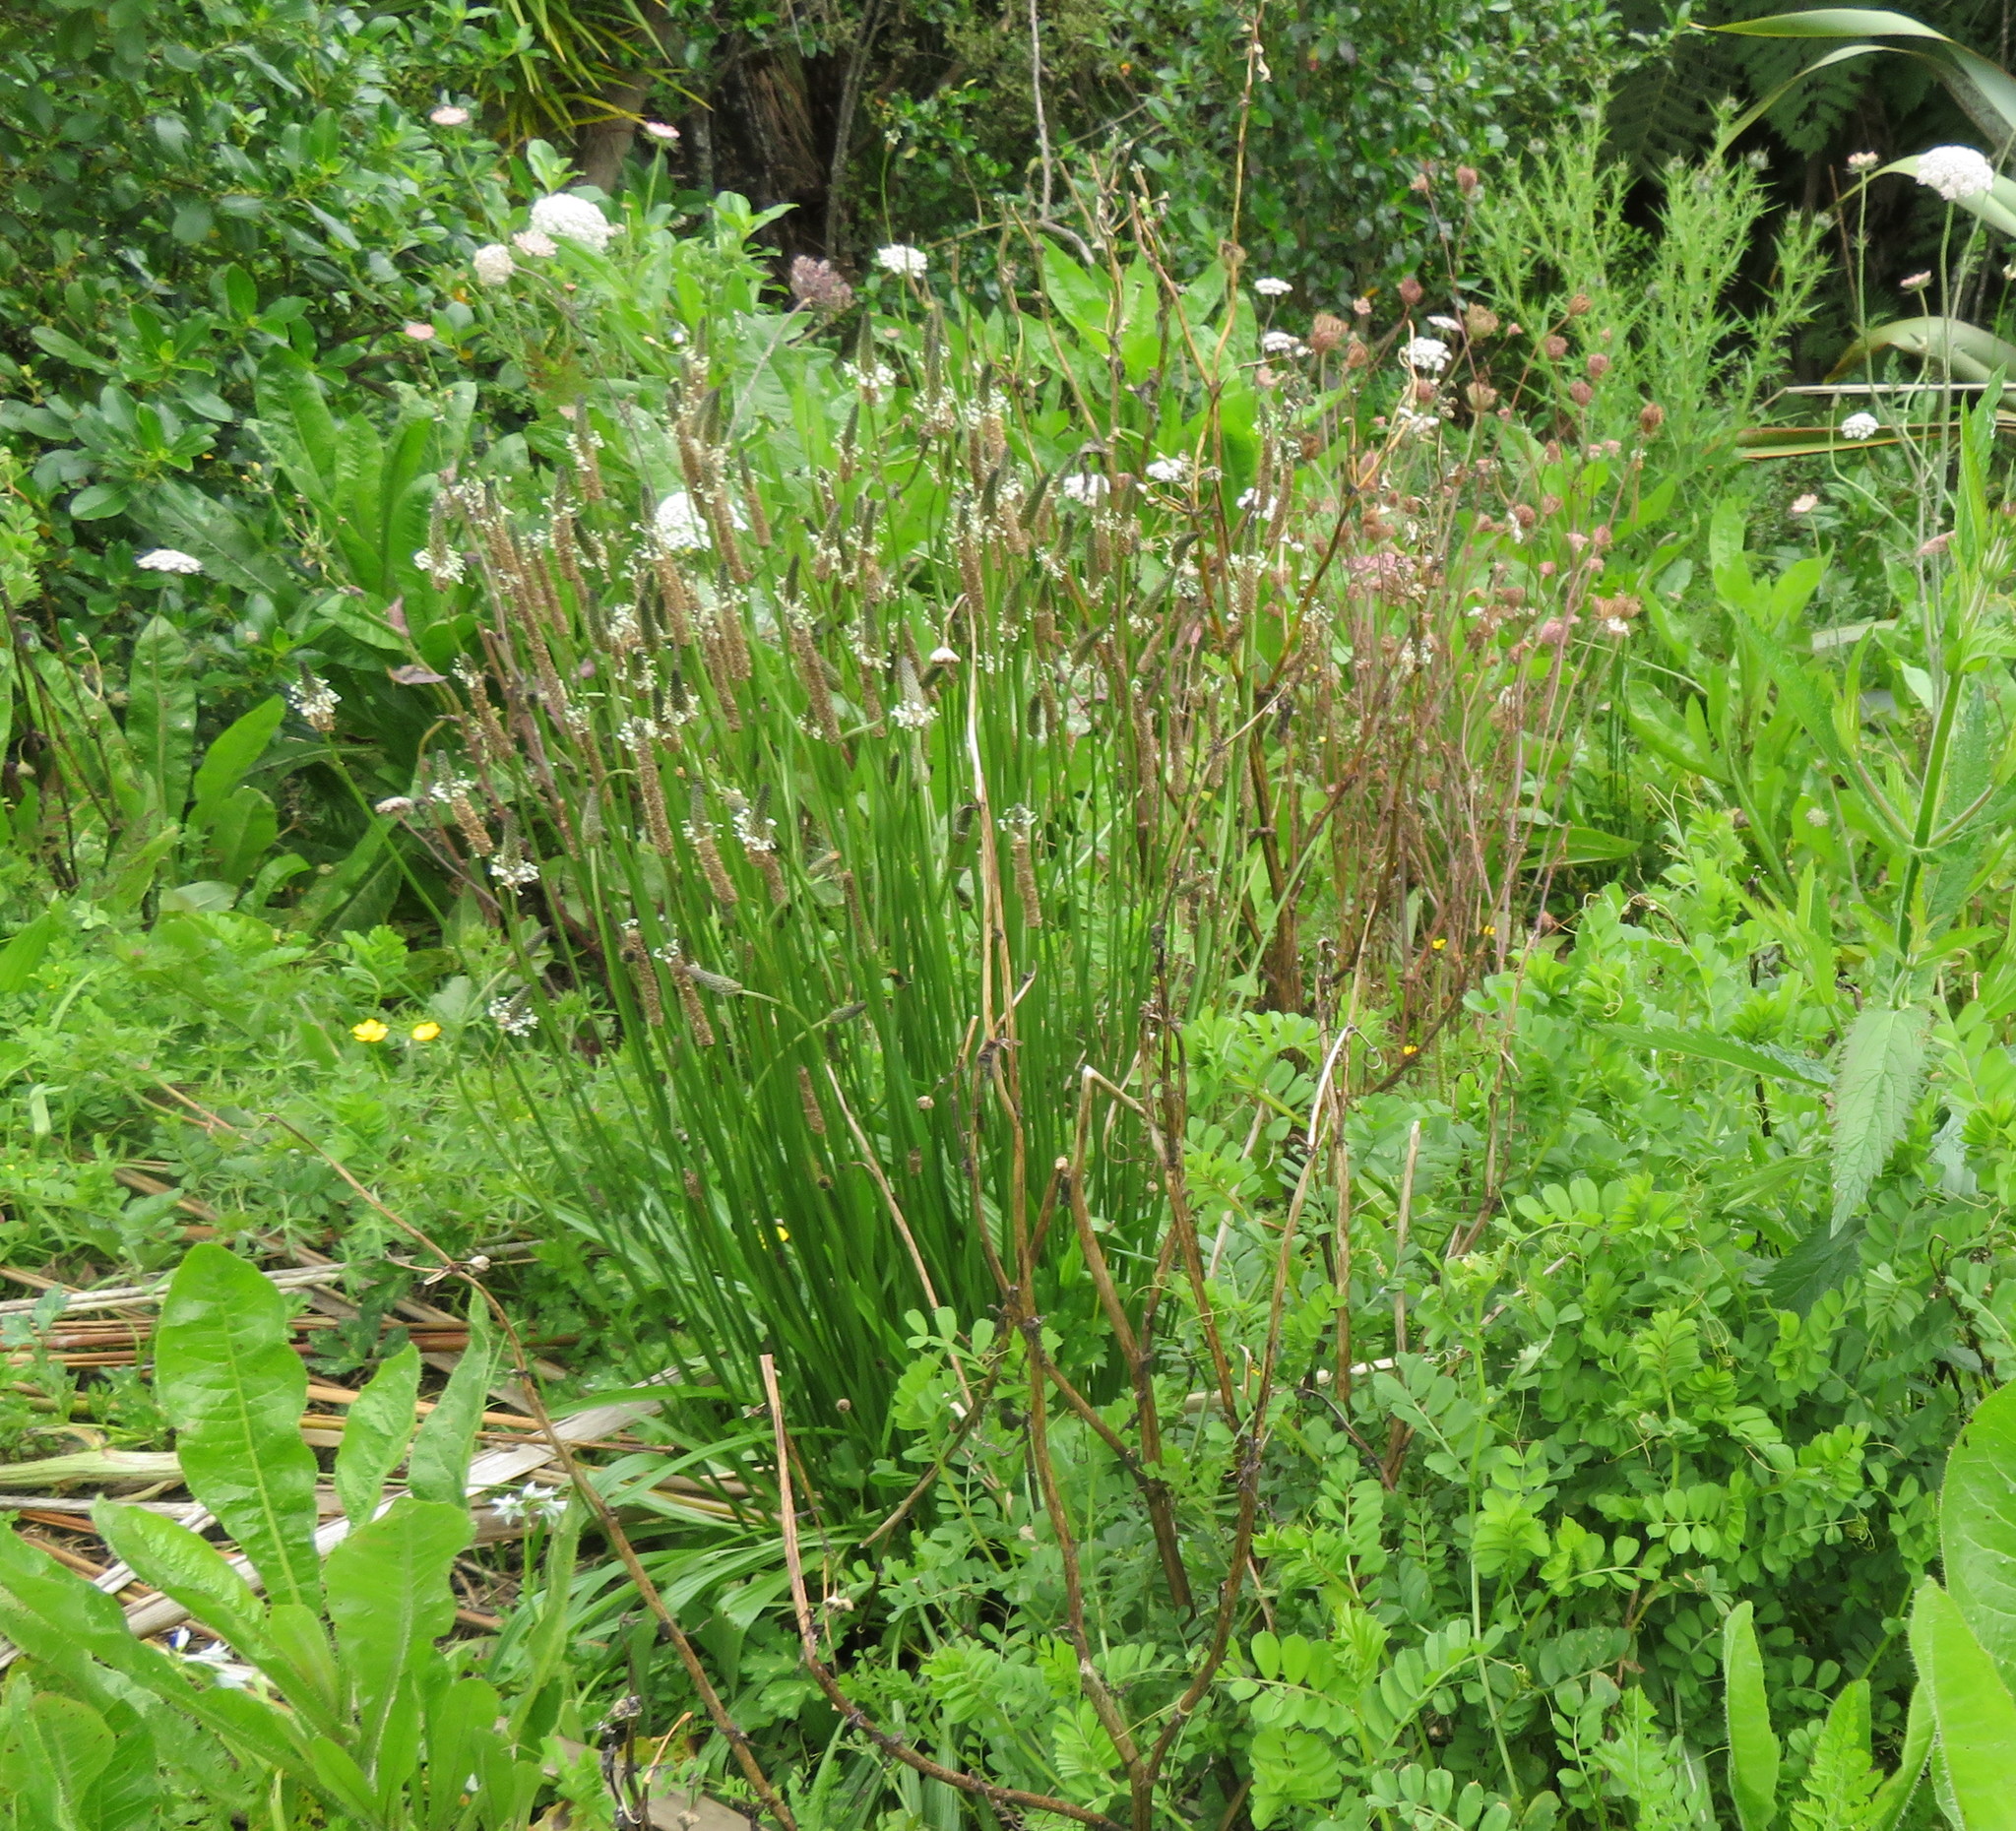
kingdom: Plantae
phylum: Tracheophyta
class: Magnoliopsida
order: Lamiales
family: Plantaginaceae
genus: Plantago
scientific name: Plantago lanceolata
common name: Ribwort plantain
